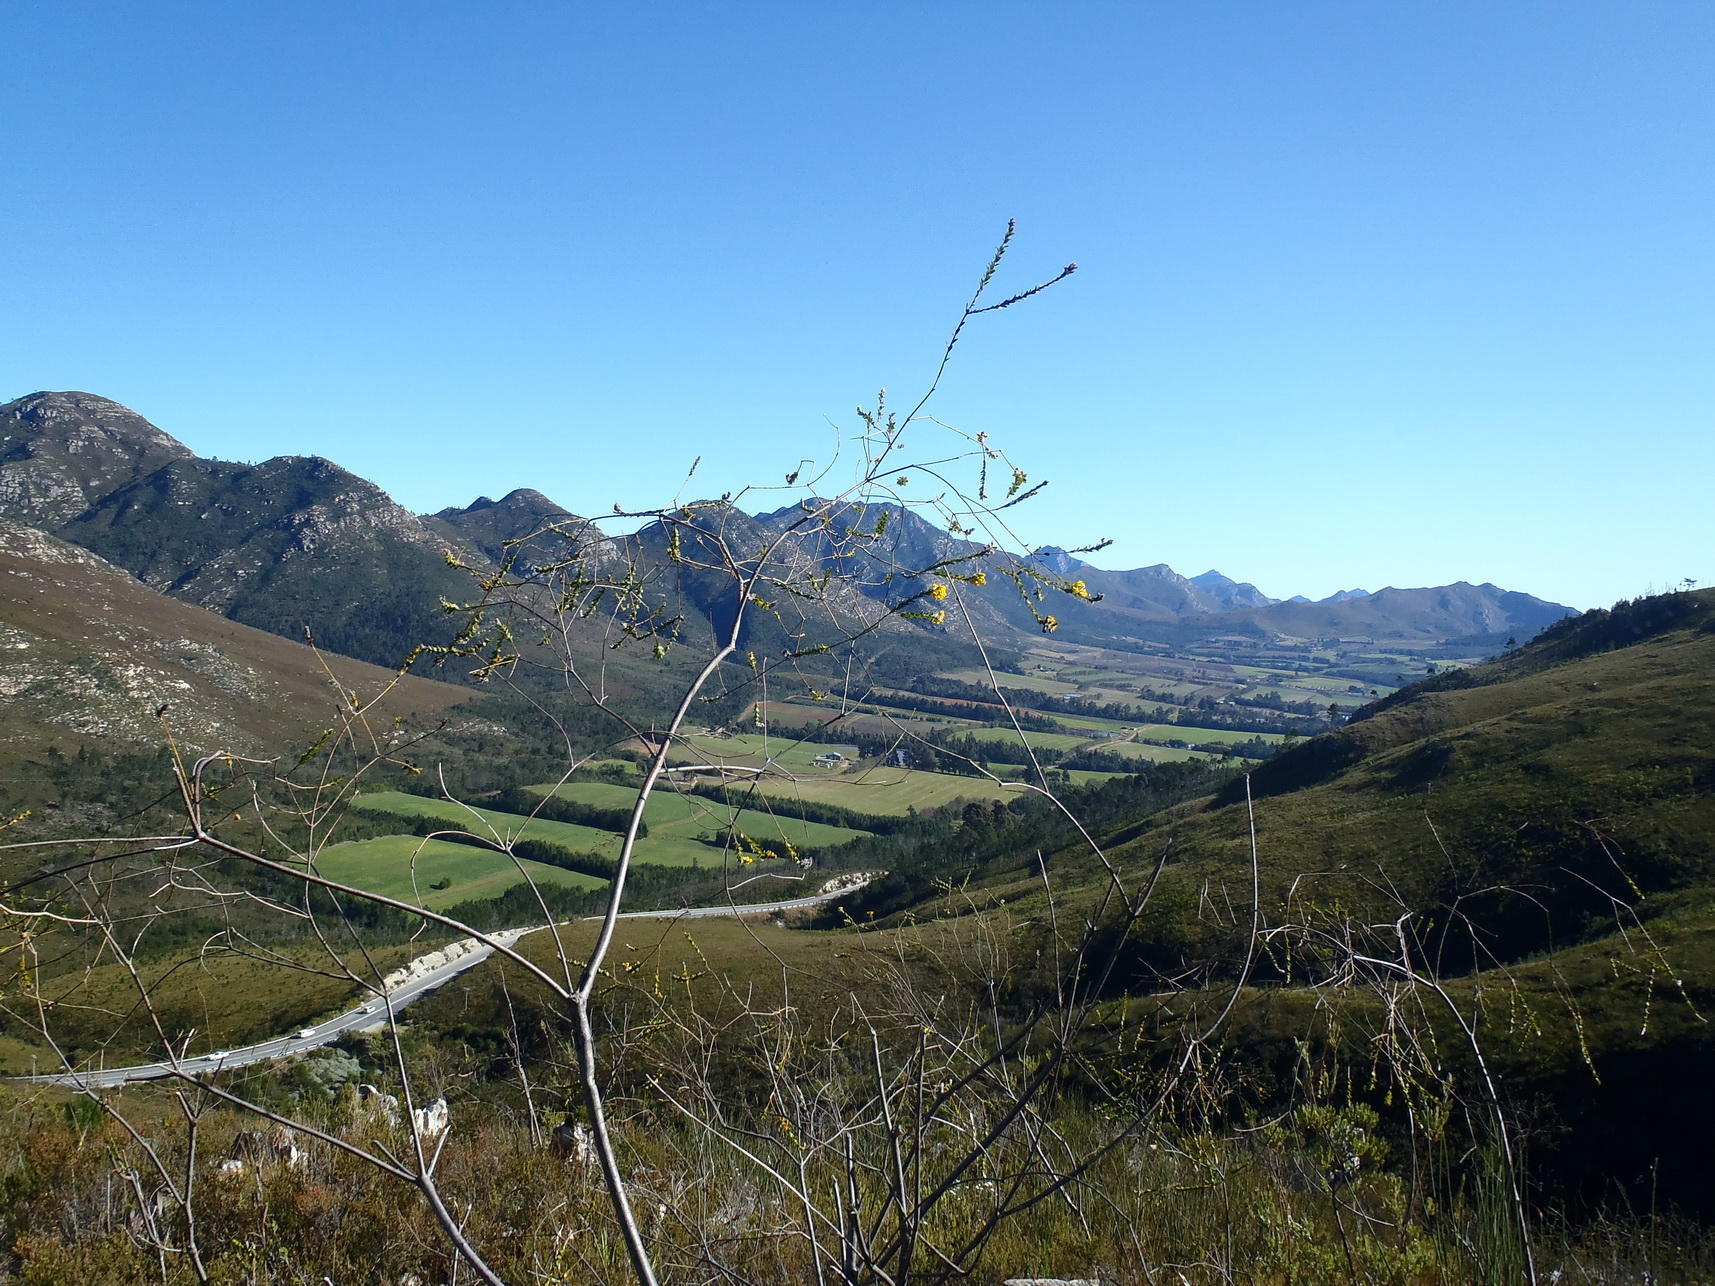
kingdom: Plantae
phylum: Tracheophyta
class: Magnoliopsida
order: Fabales
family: Fabaceae
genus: Liparia
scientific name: Liparia hirsuta
